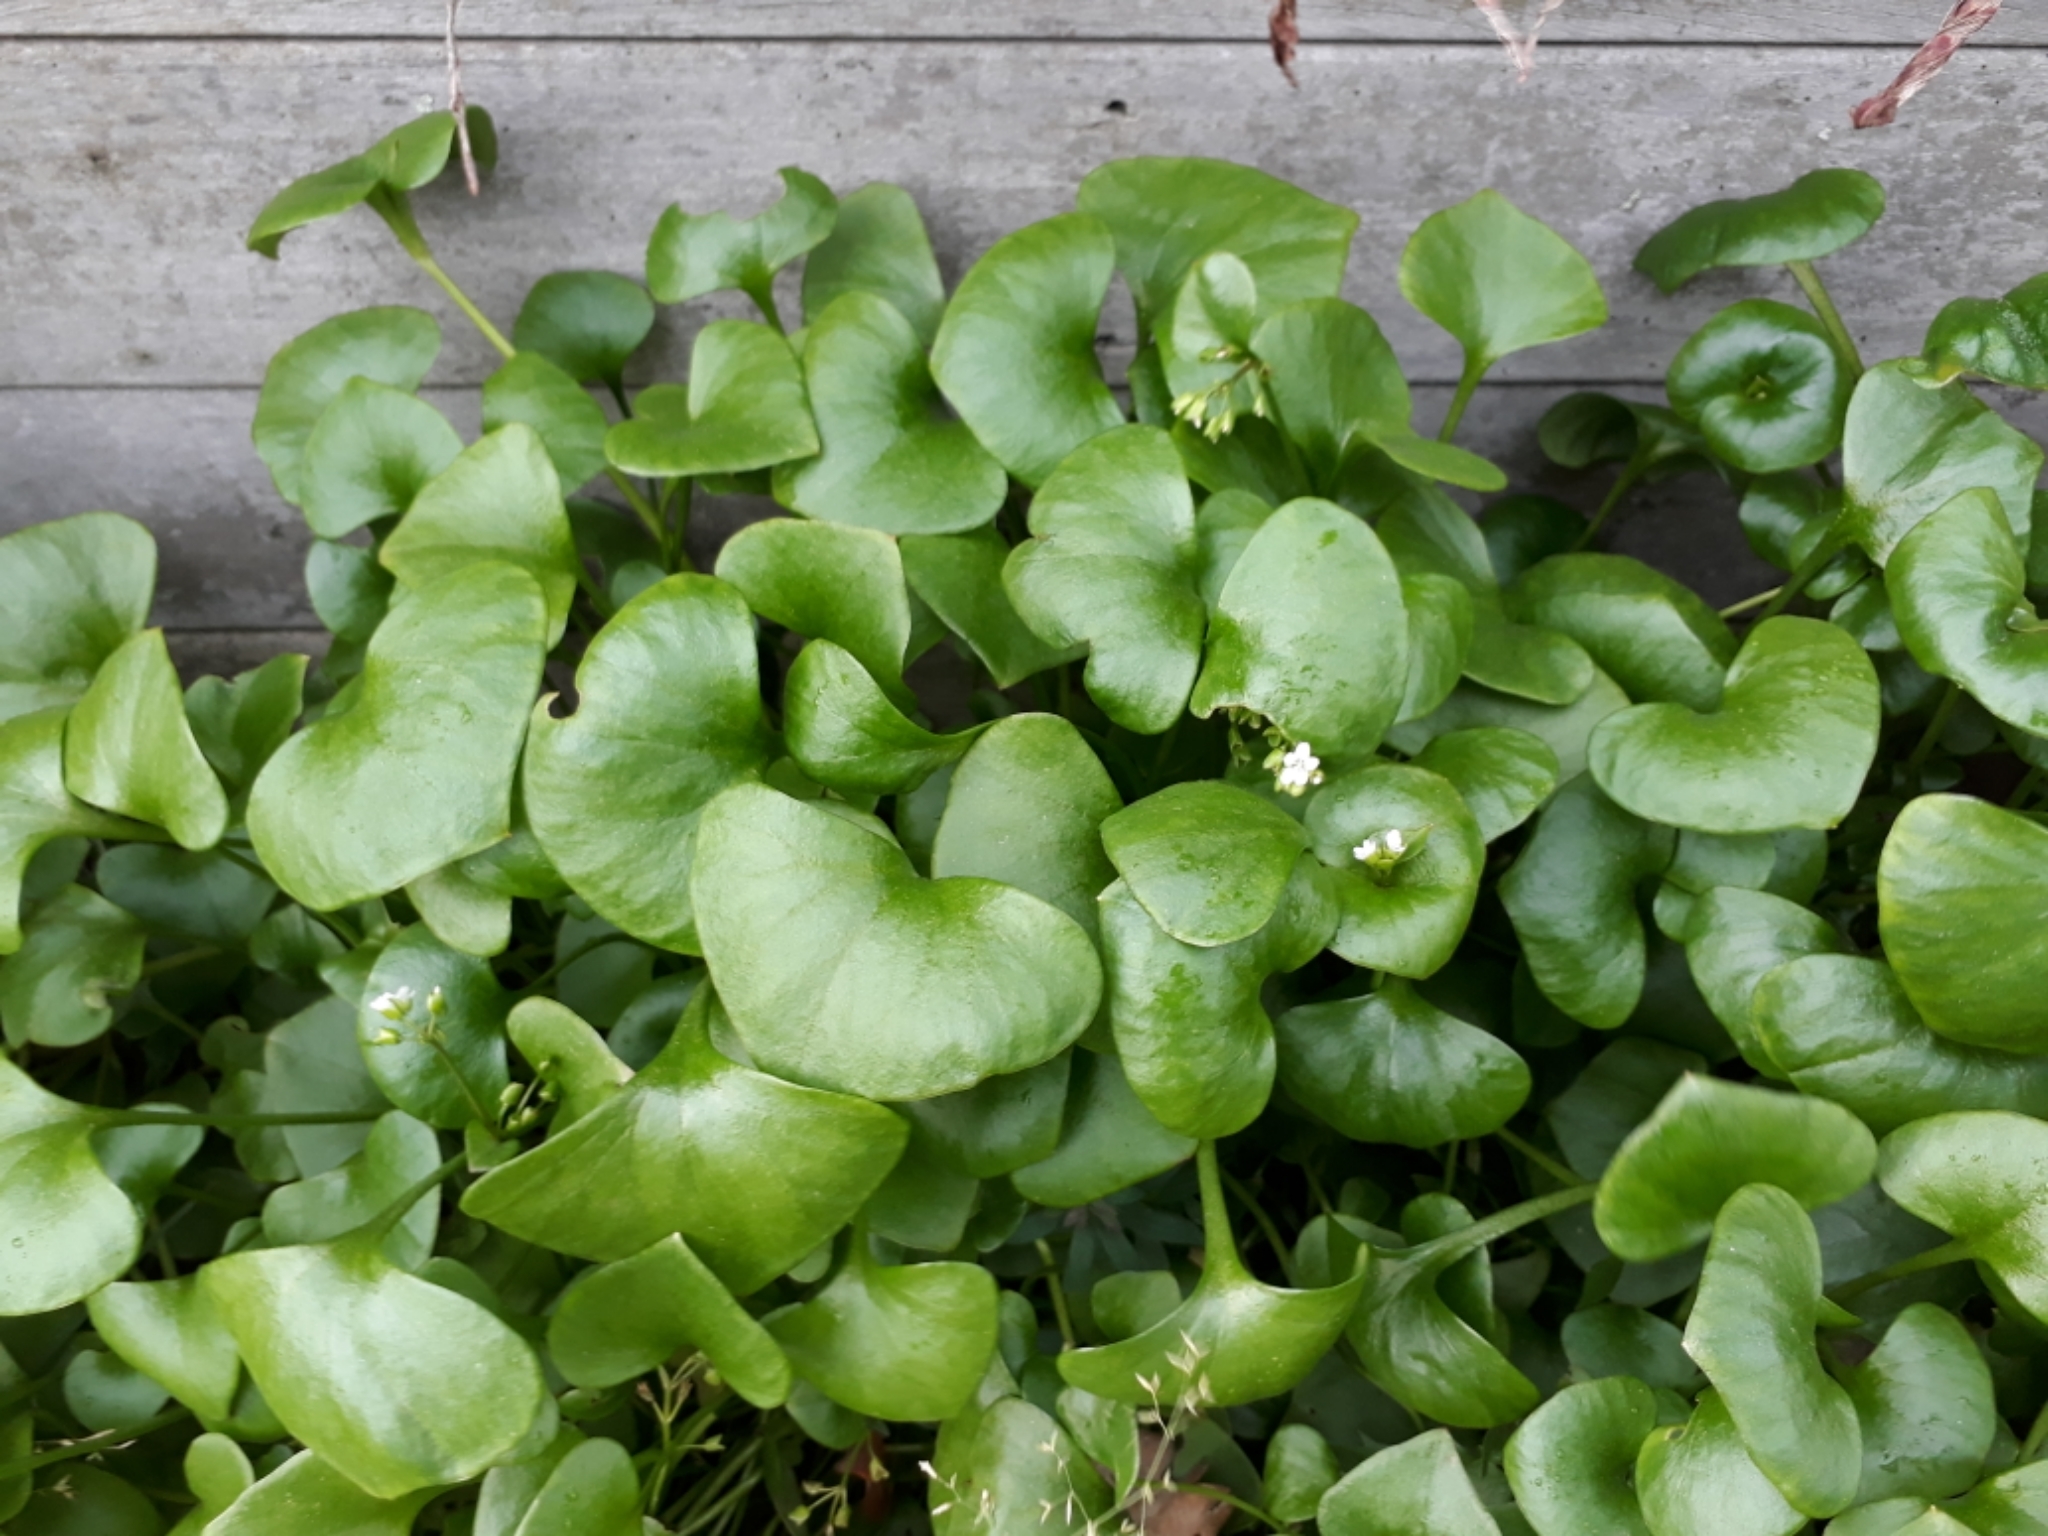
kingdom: Plantae
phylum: Tracheophyta
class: Magnoliopsida
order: Caryophyllales
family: Montiaceae
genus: Claytonia
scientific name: Claytonia perfoliata
